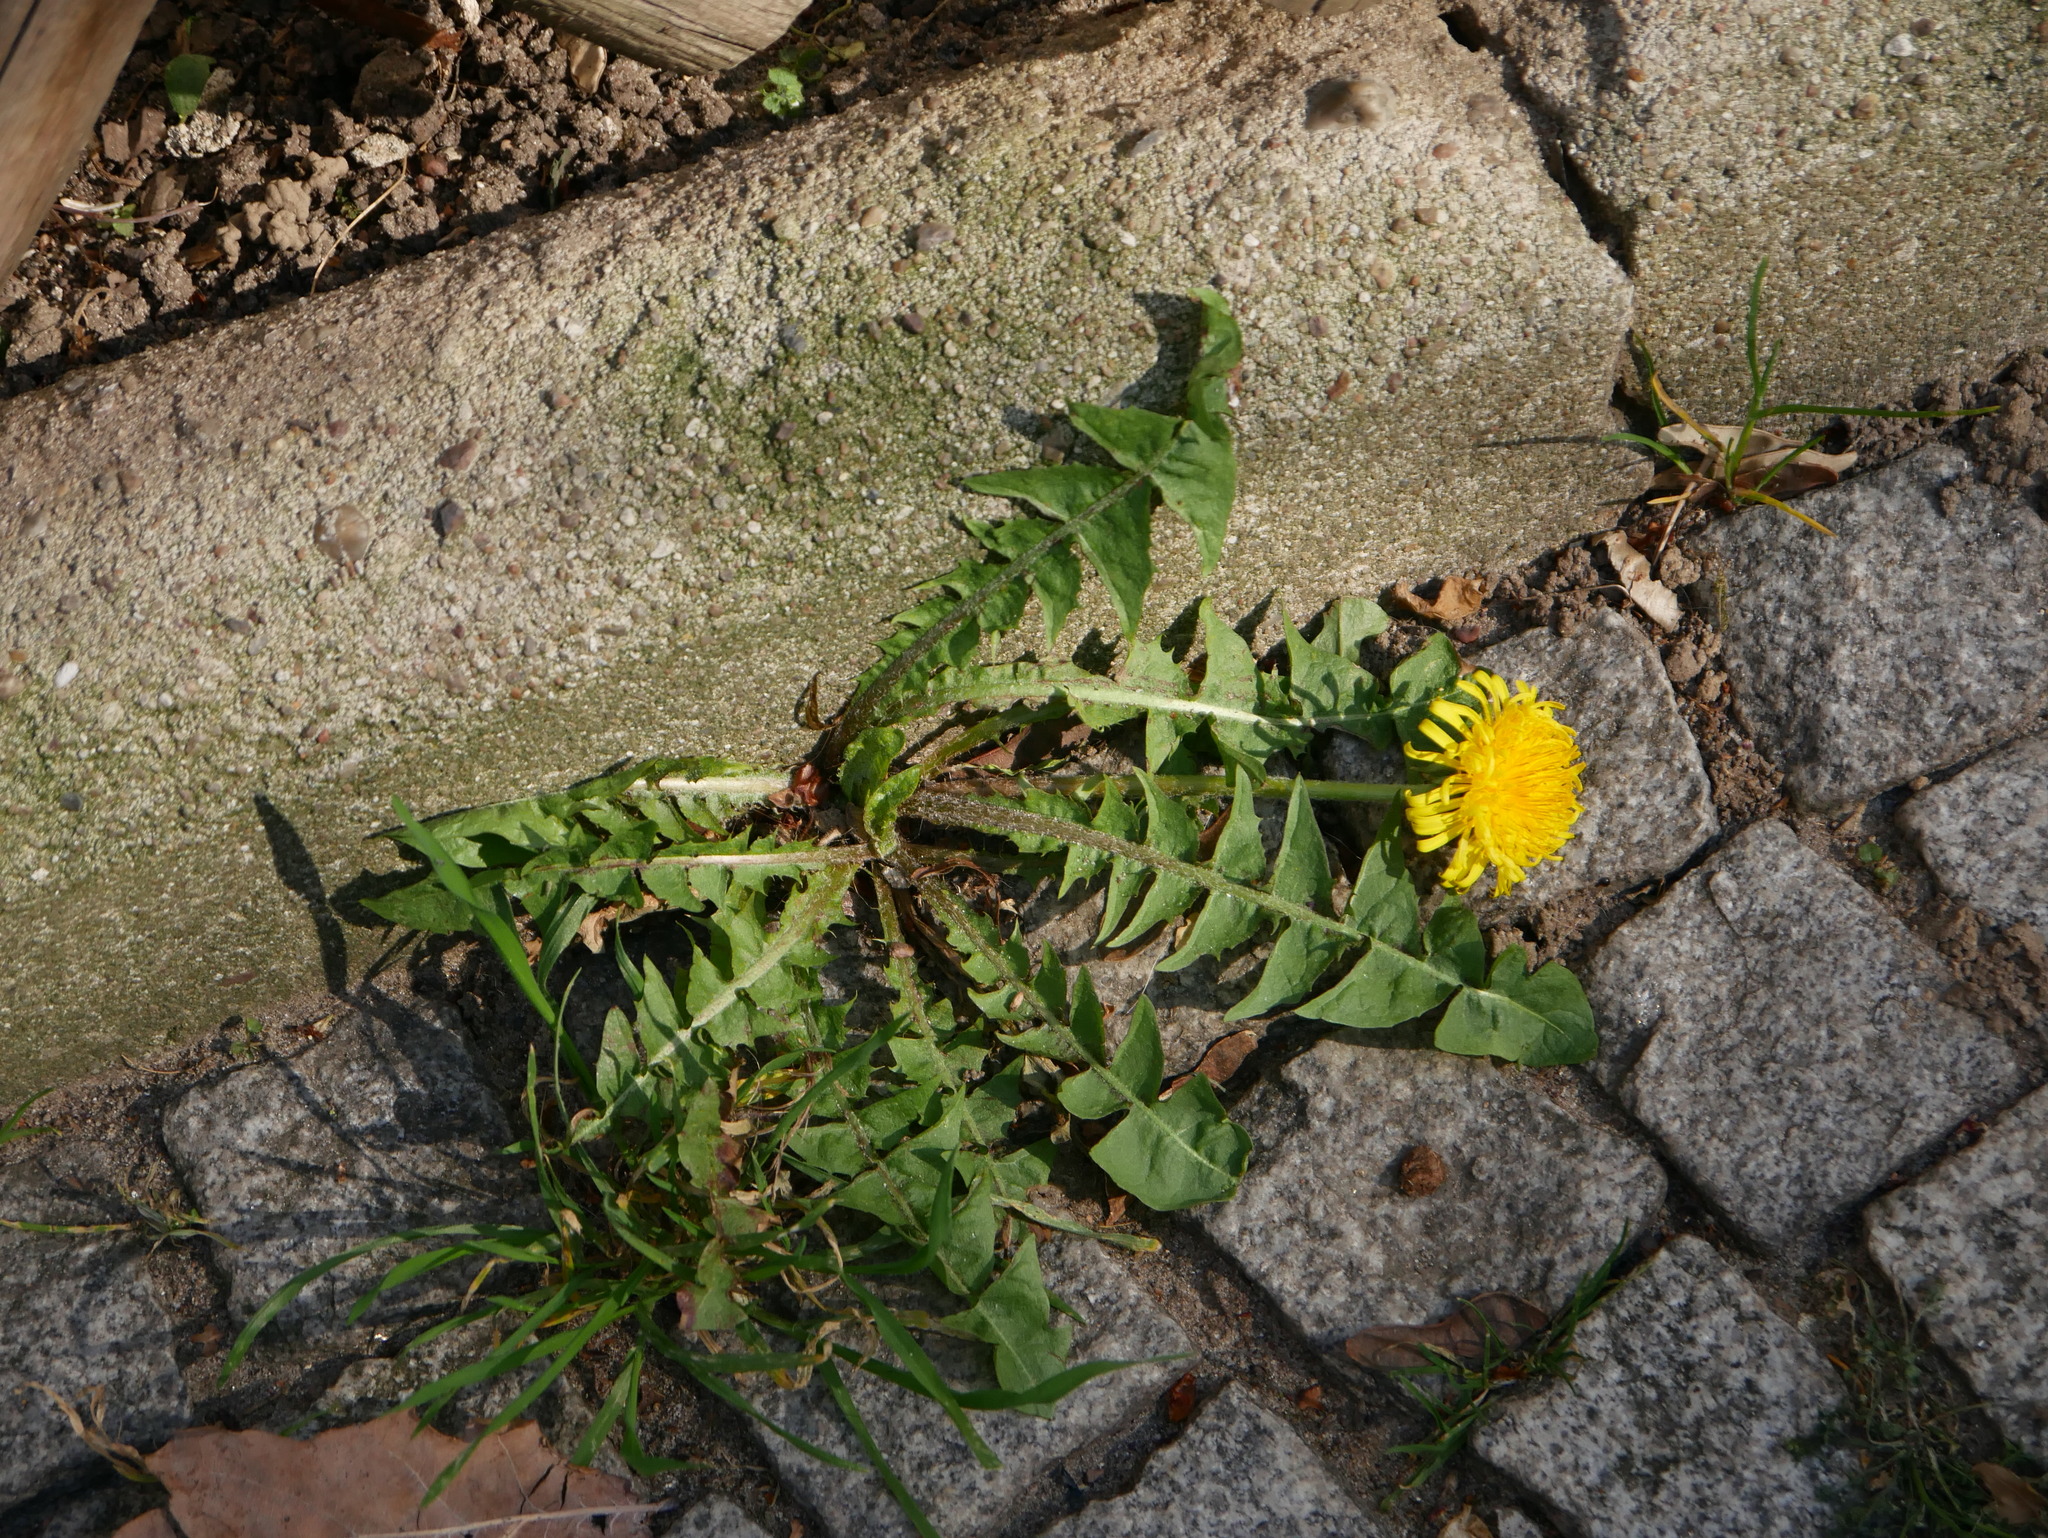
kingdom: Plantae
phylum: Tracheophyta
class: Magnoliopsida
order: Asterales
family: Asteraceae
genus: Taraxacum
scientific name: Taraxacum officinale
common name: Common dandelion
